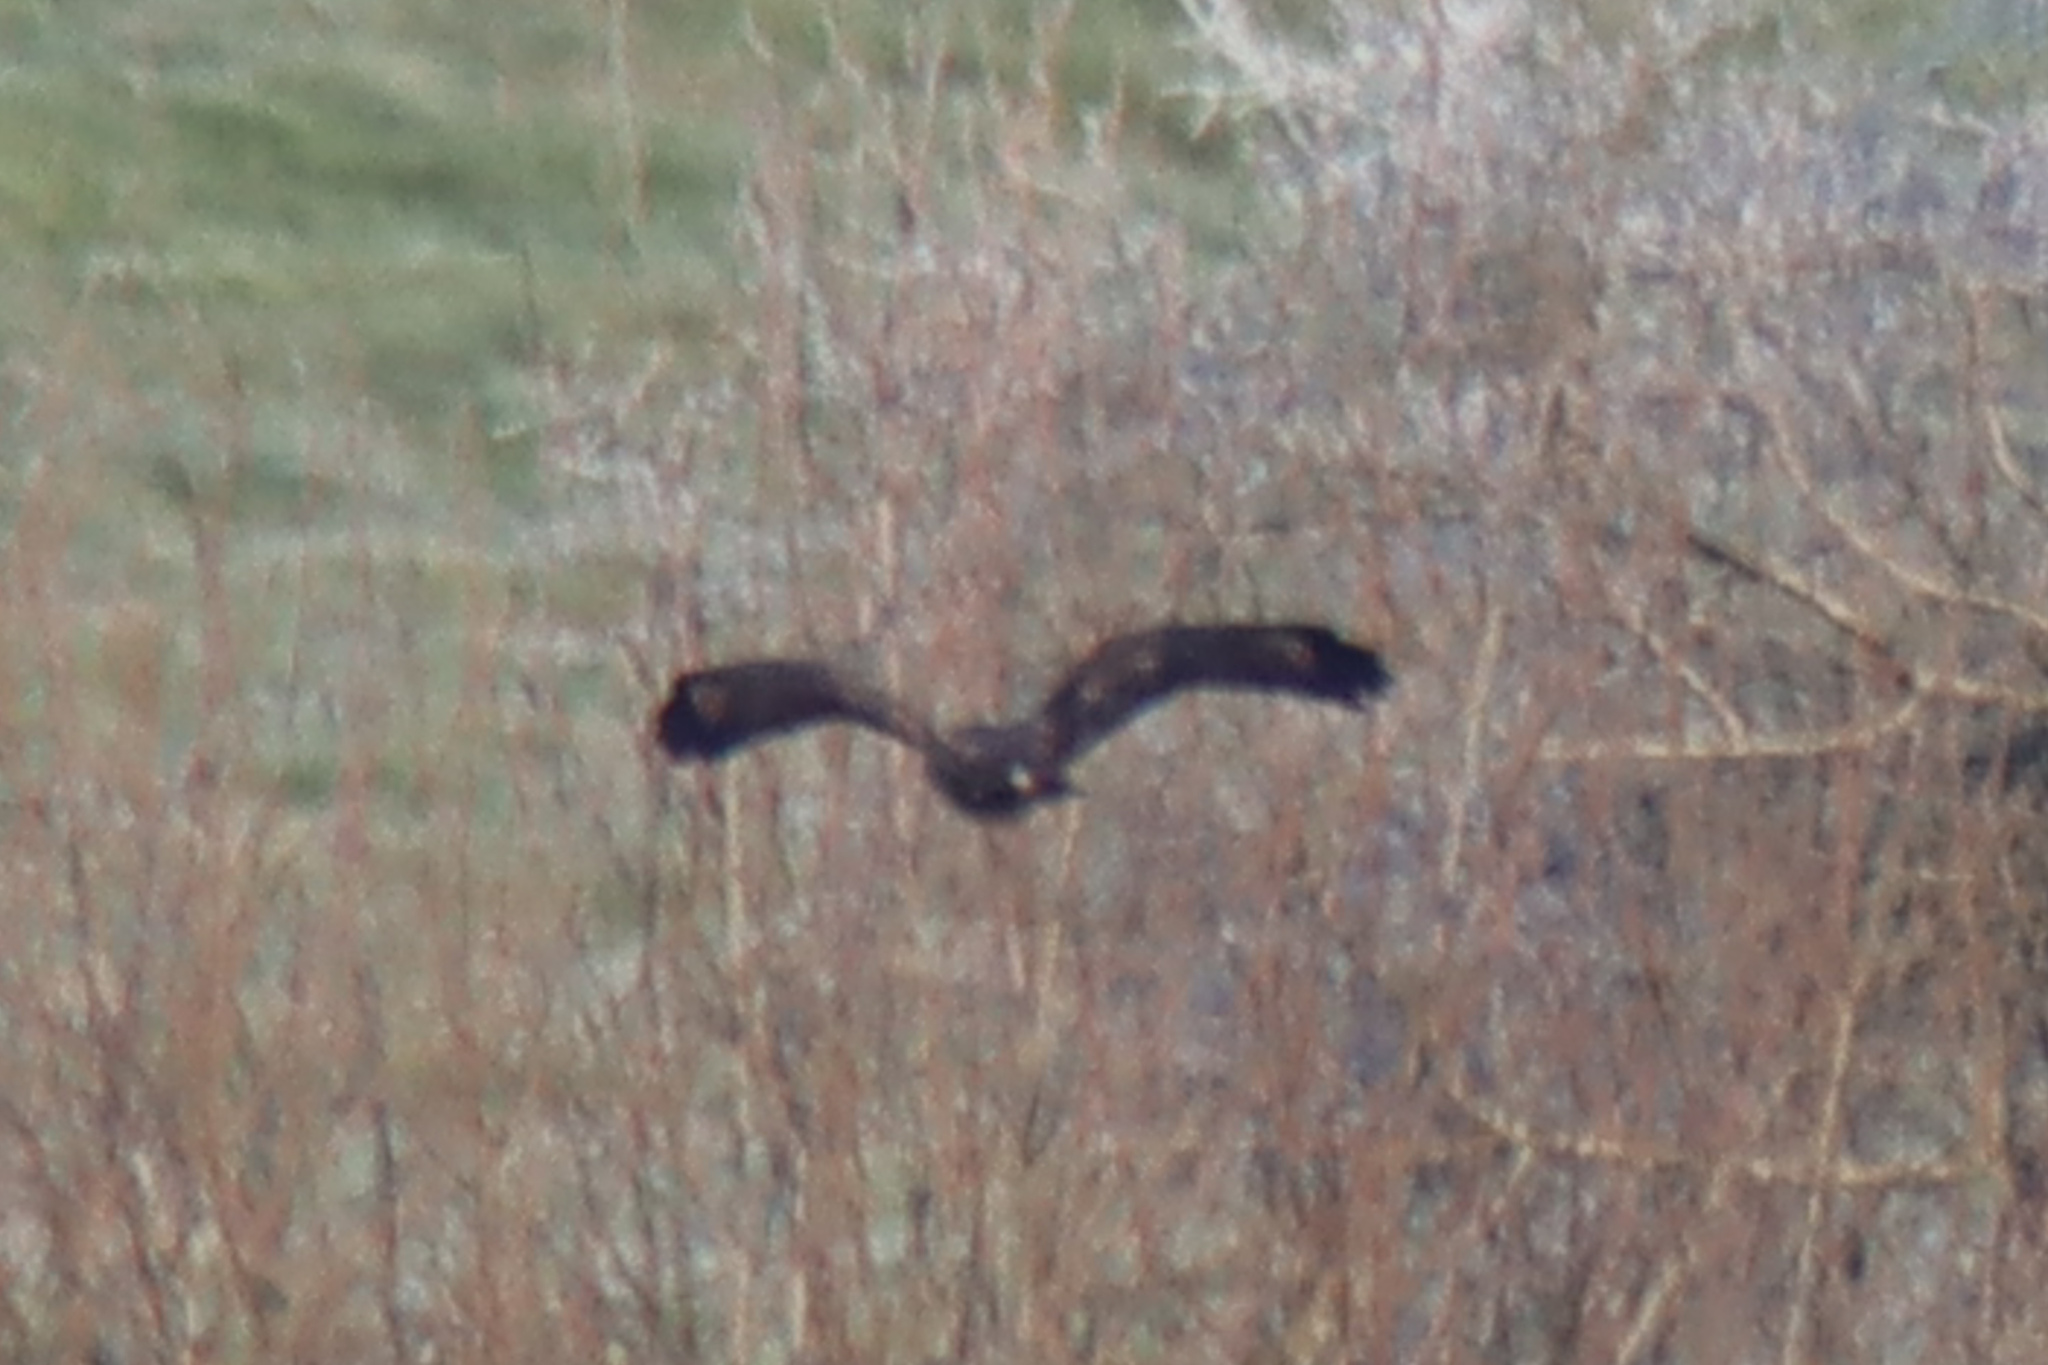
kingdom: Animalia
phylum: Chordata
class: Aves
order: Accipitriformes
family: Accipitridae
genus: Buteo
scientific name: Buteo buteo
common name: Common buzzard
